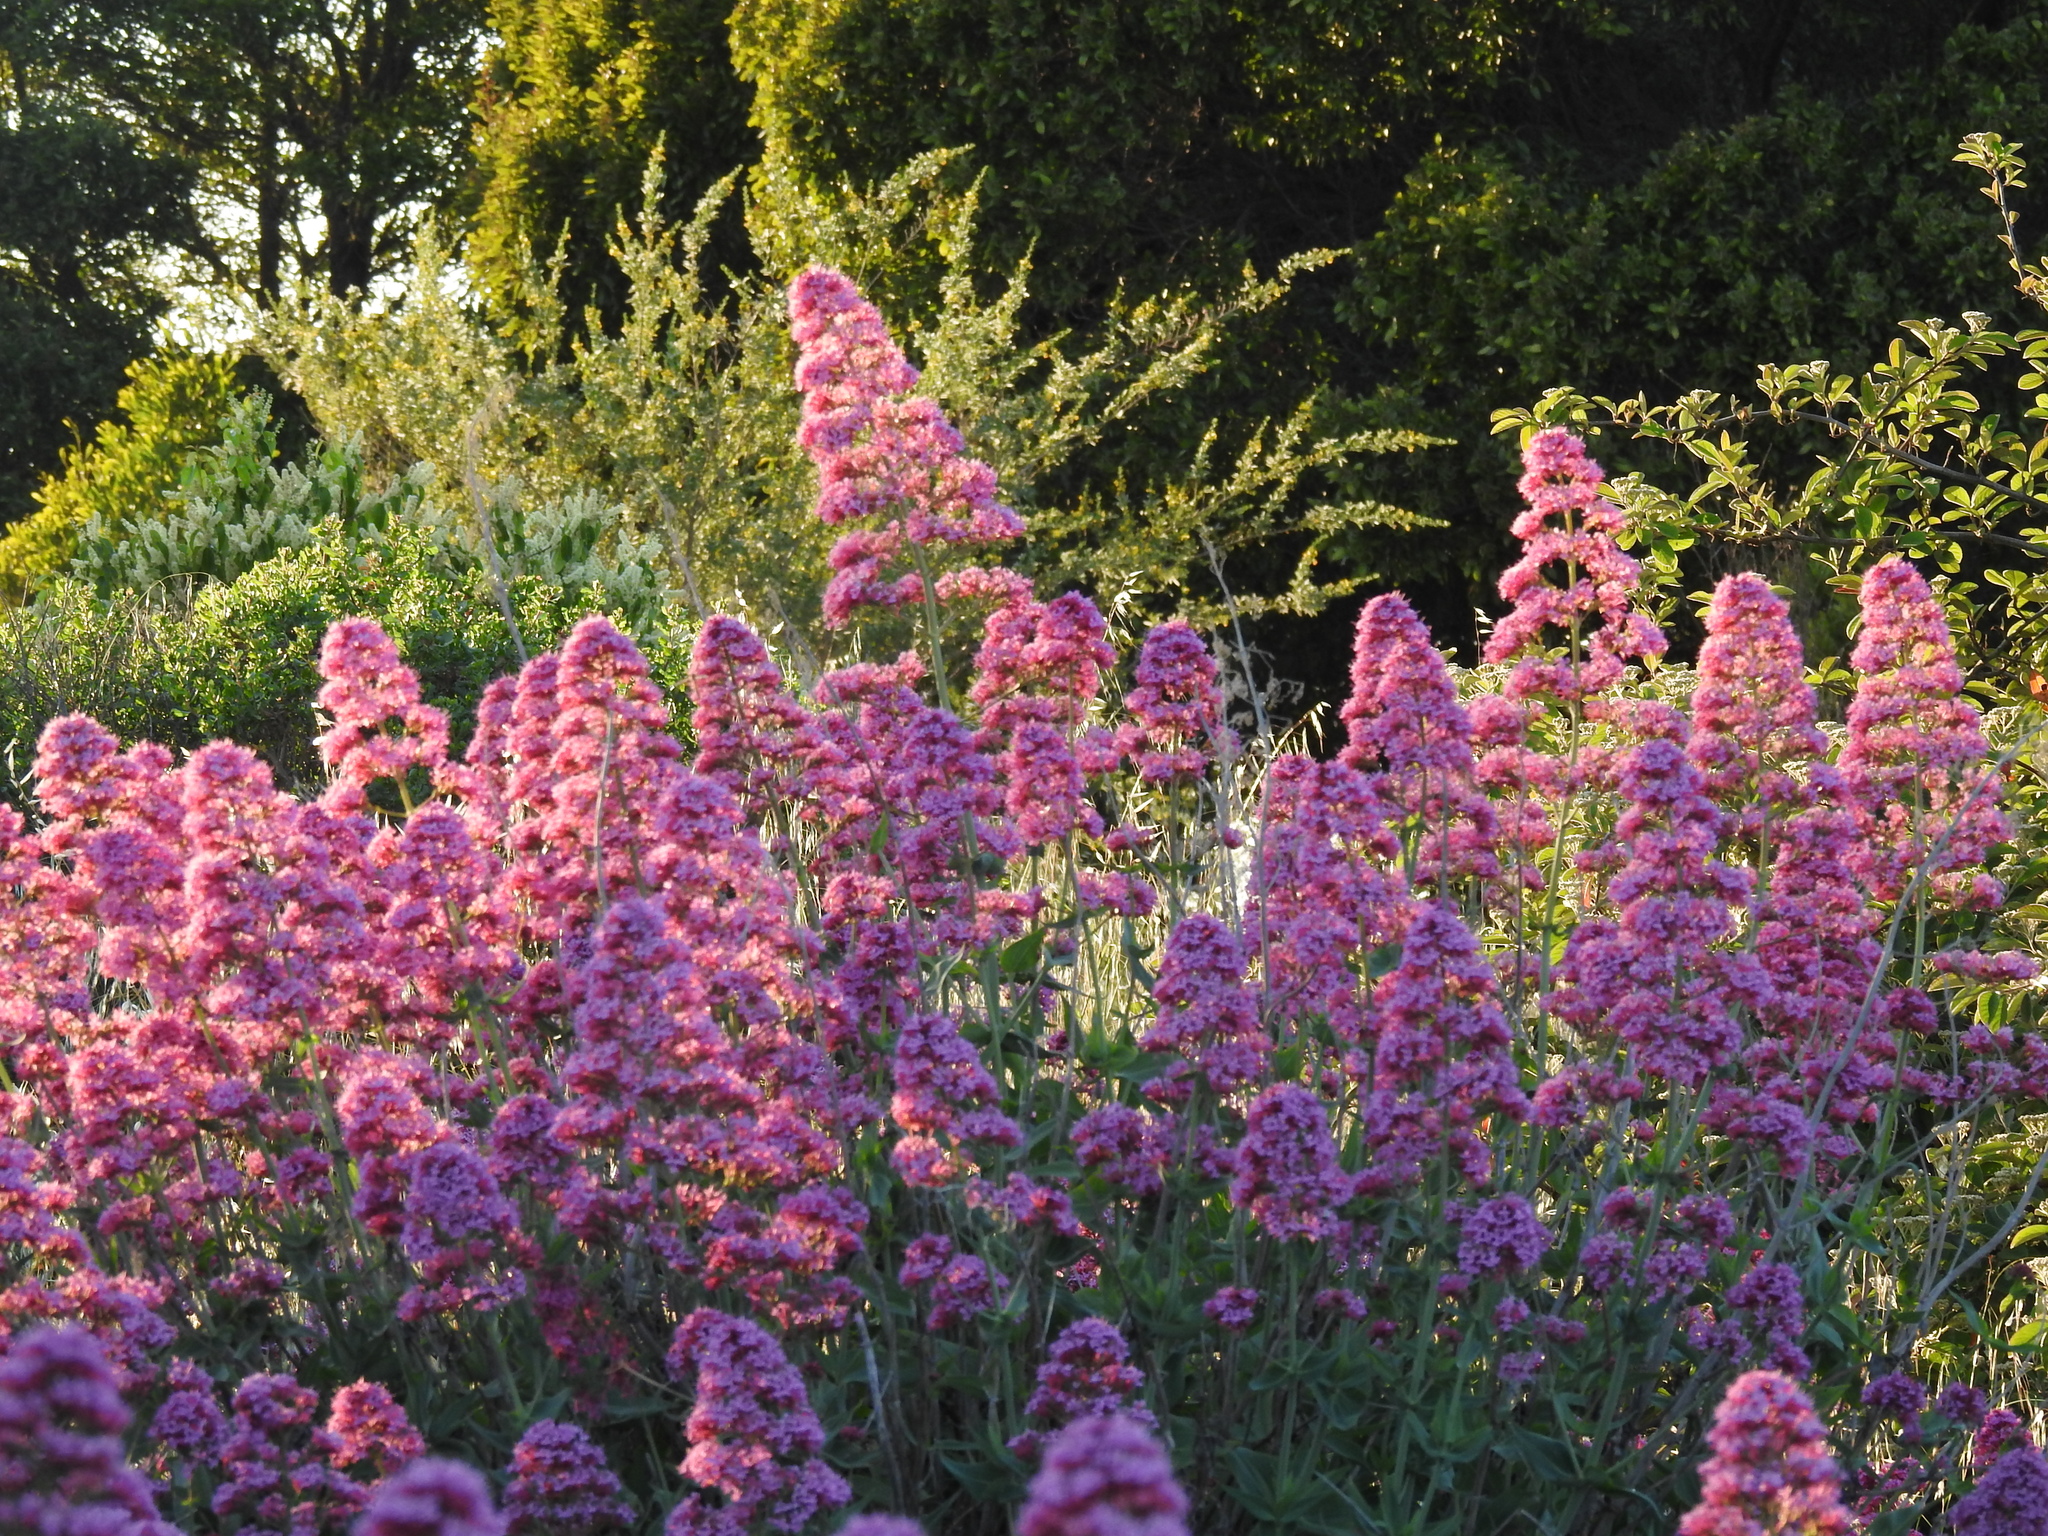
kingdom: Plantae
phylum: Tracheophyta
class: Magnoliopsida
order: Dipsacales
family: Caprifoliaceae
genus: Centranthus
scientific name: Centranthus ruber
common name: Red valerian
